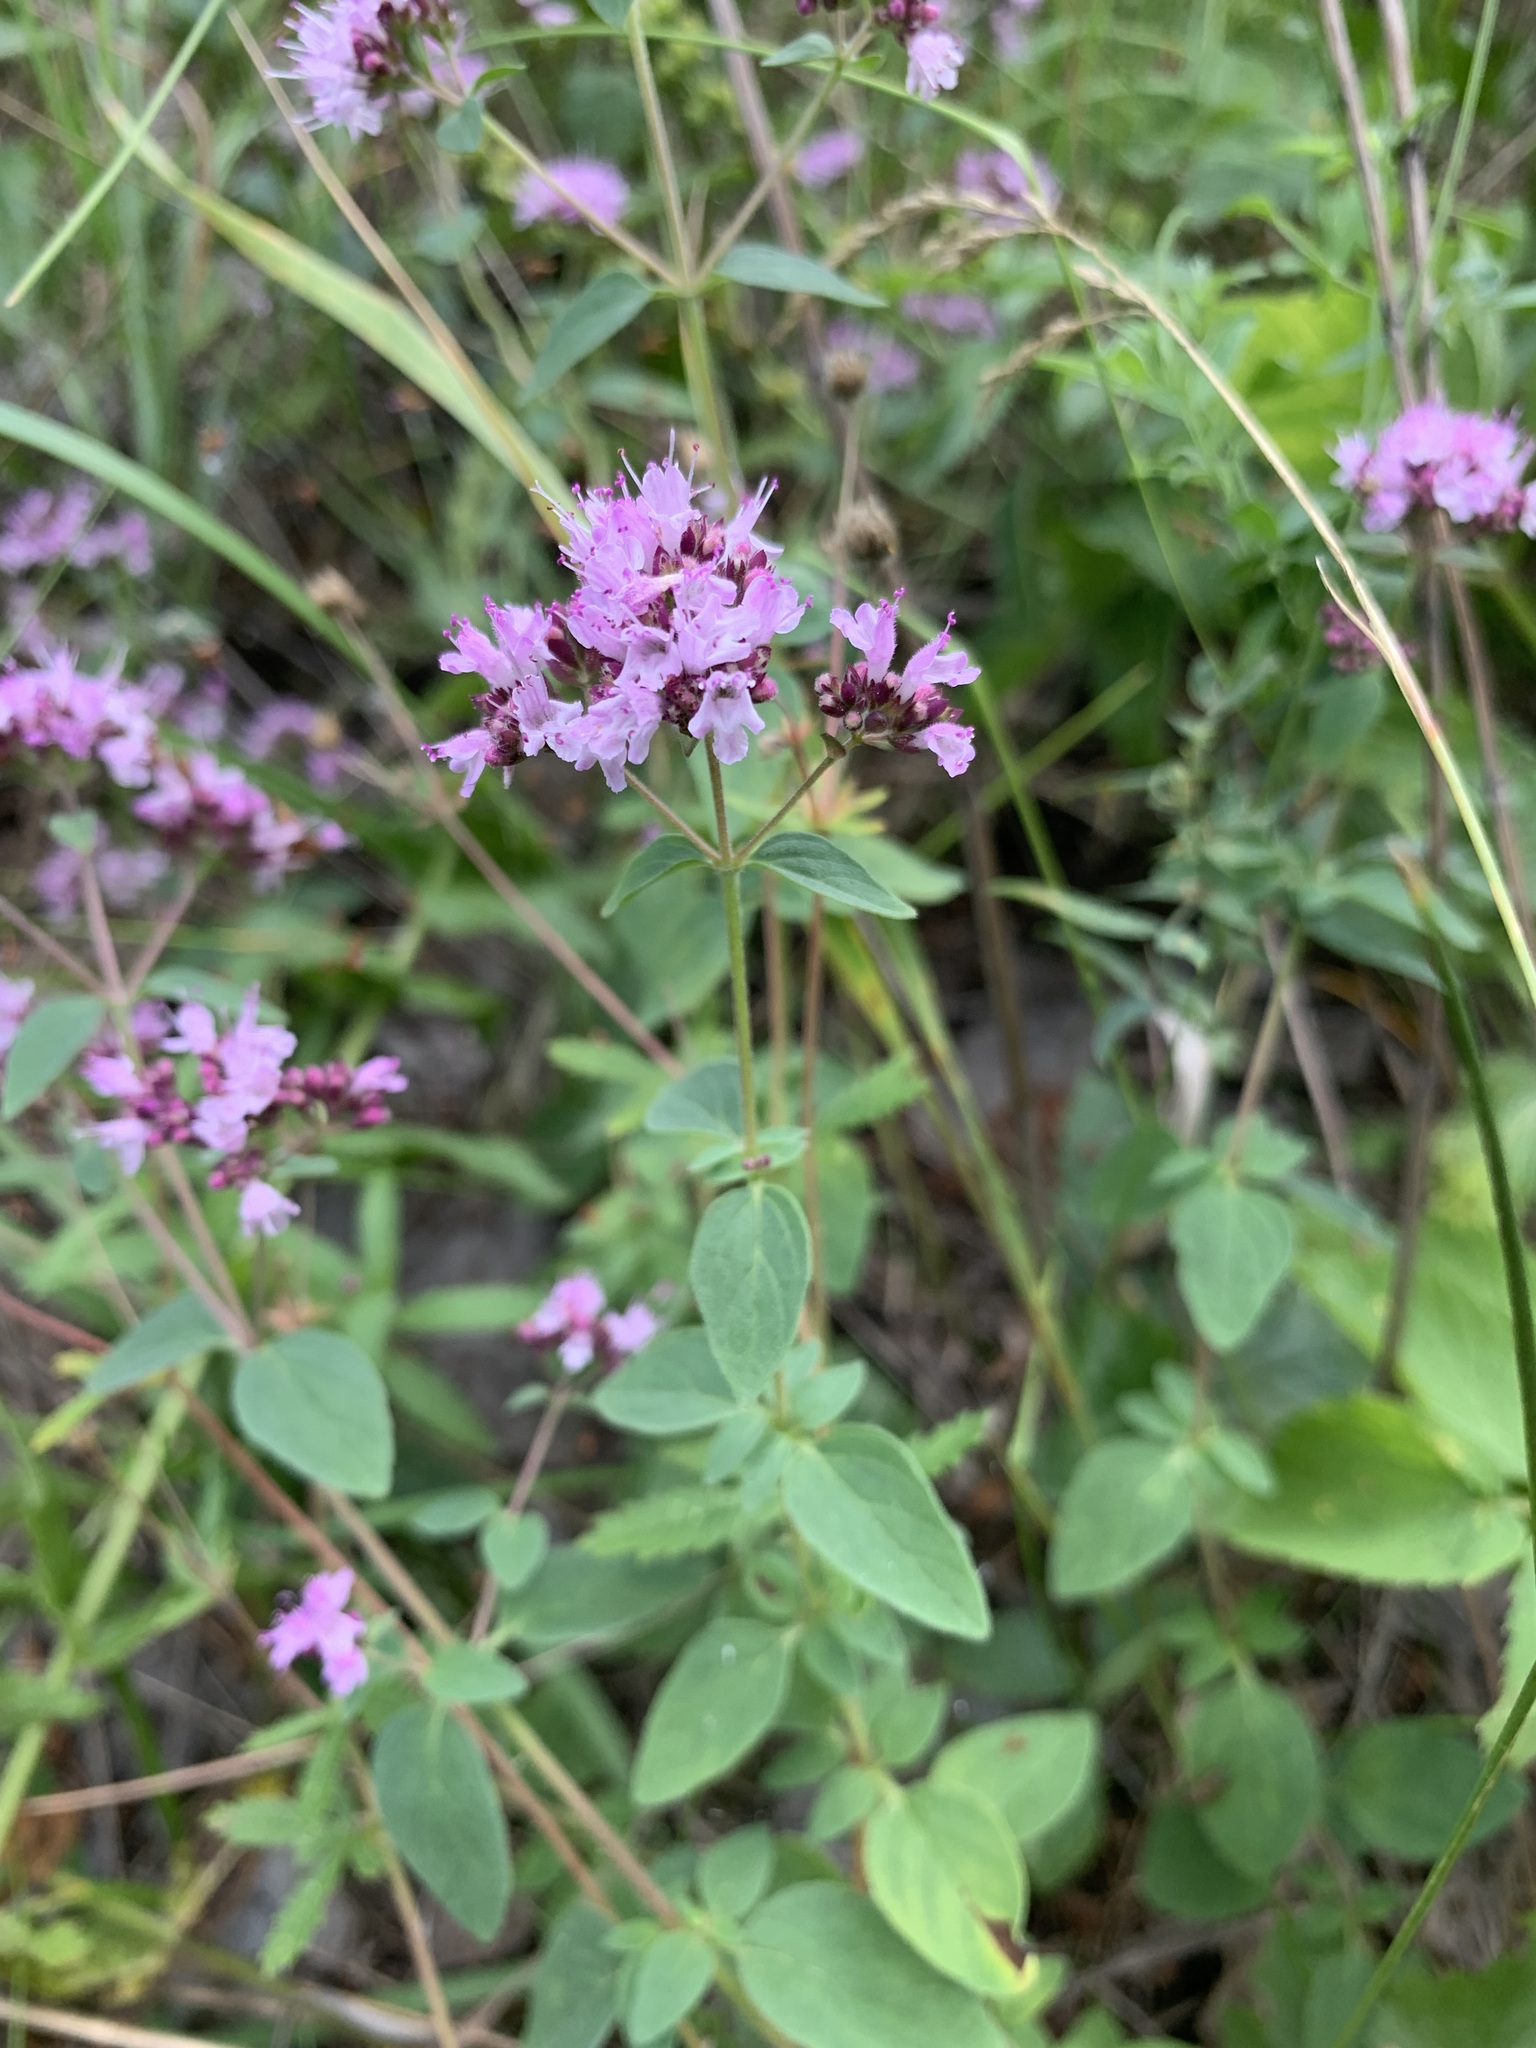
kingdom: Plantae
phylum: Tracheophyta
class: Magnoliopsida
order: Lamiales
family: Lamiaceae
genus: Origanum
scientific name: Origanum vulgare
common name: Wild marjoram
